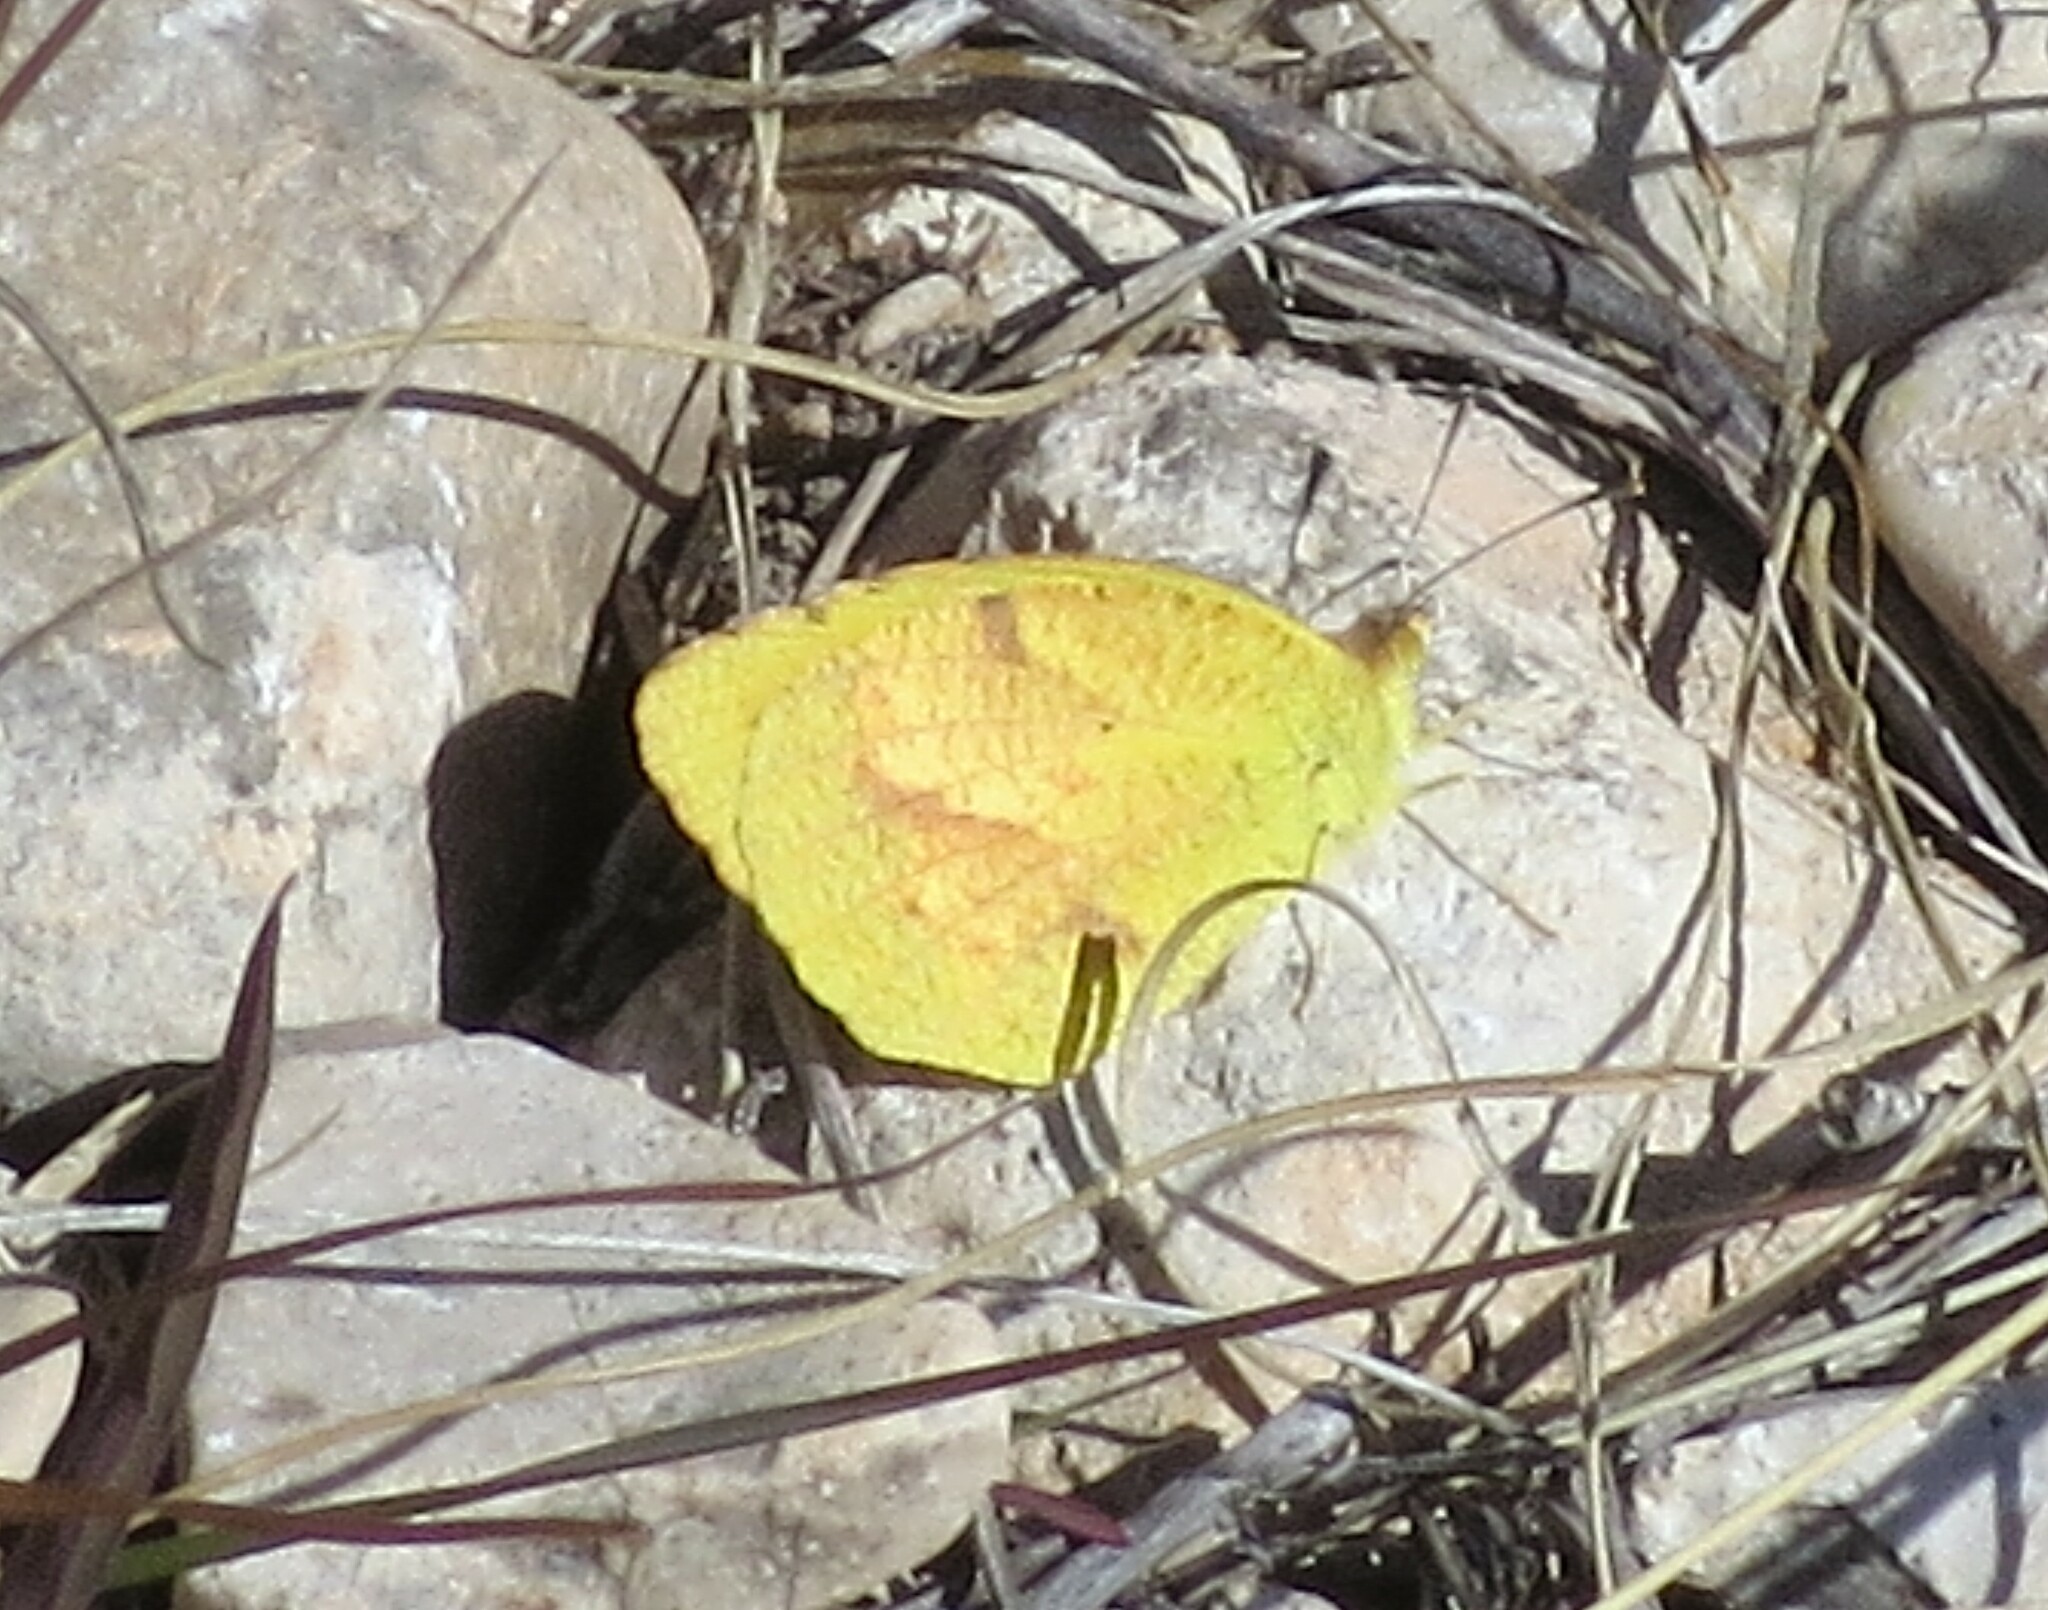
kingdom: Animalia
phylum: Arthropoda
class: Insecta
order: Lepidoptera
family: Pieridae
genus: Abaeis
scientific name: Abaeis nicippe
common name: Sleepy orange
